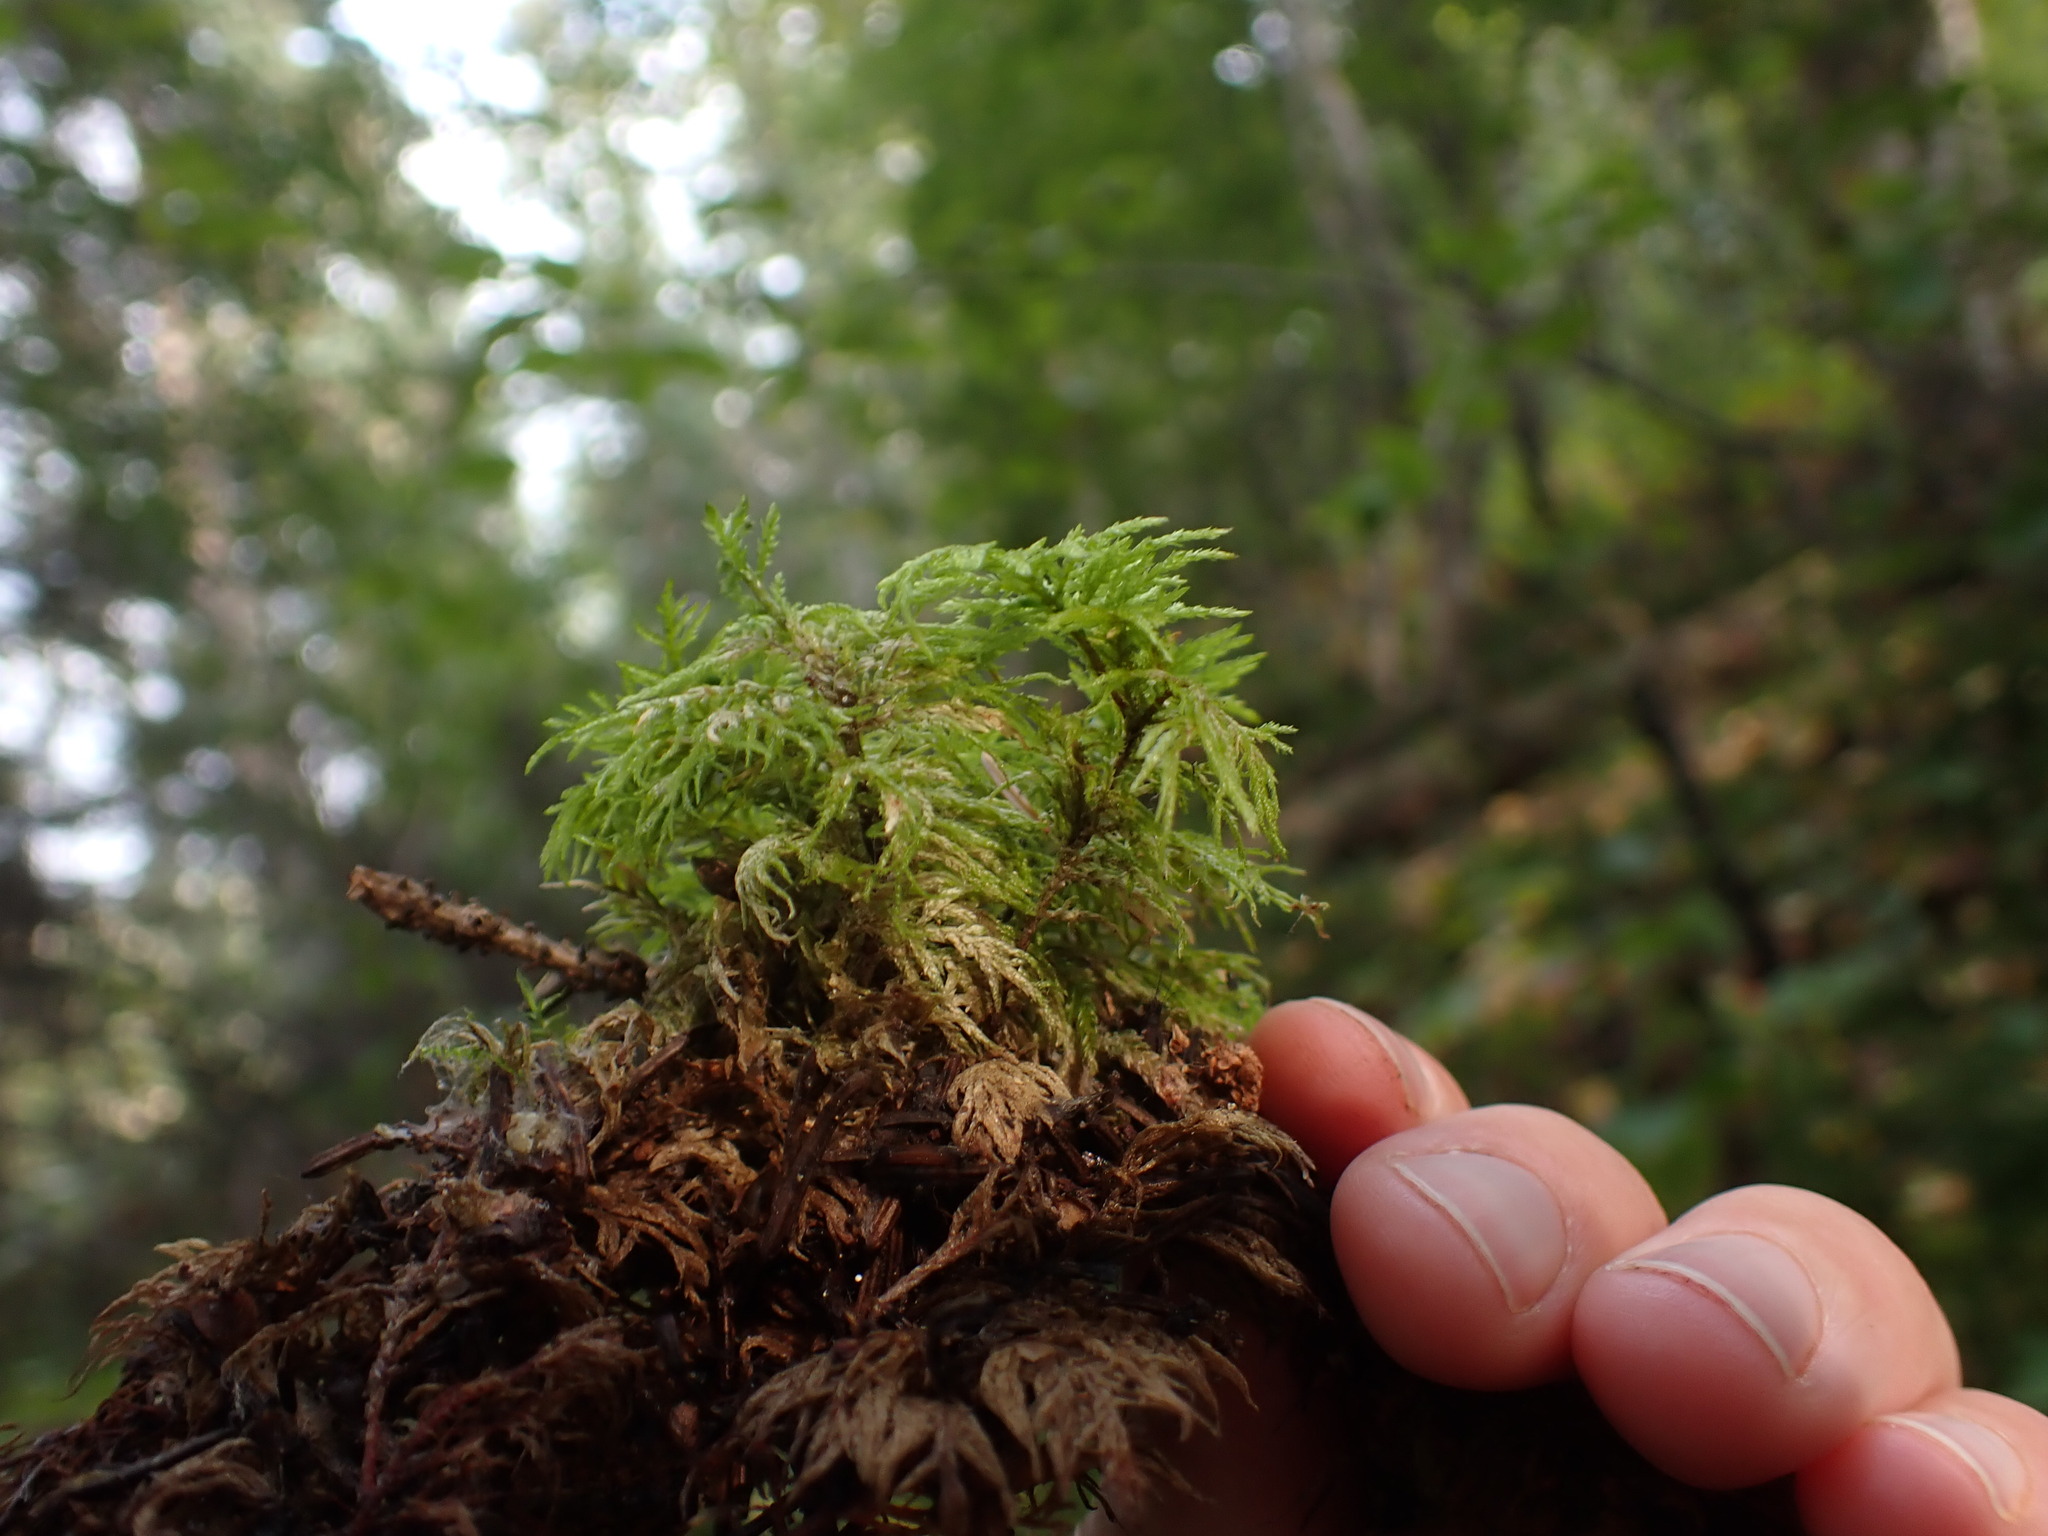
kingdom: Plantae
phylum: Bryophyta
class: Bryopsida
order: Hypnales
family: Hylocomiaceae
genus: Hylocomium
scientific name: Hylocomium splendens
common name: Stairstep moss
